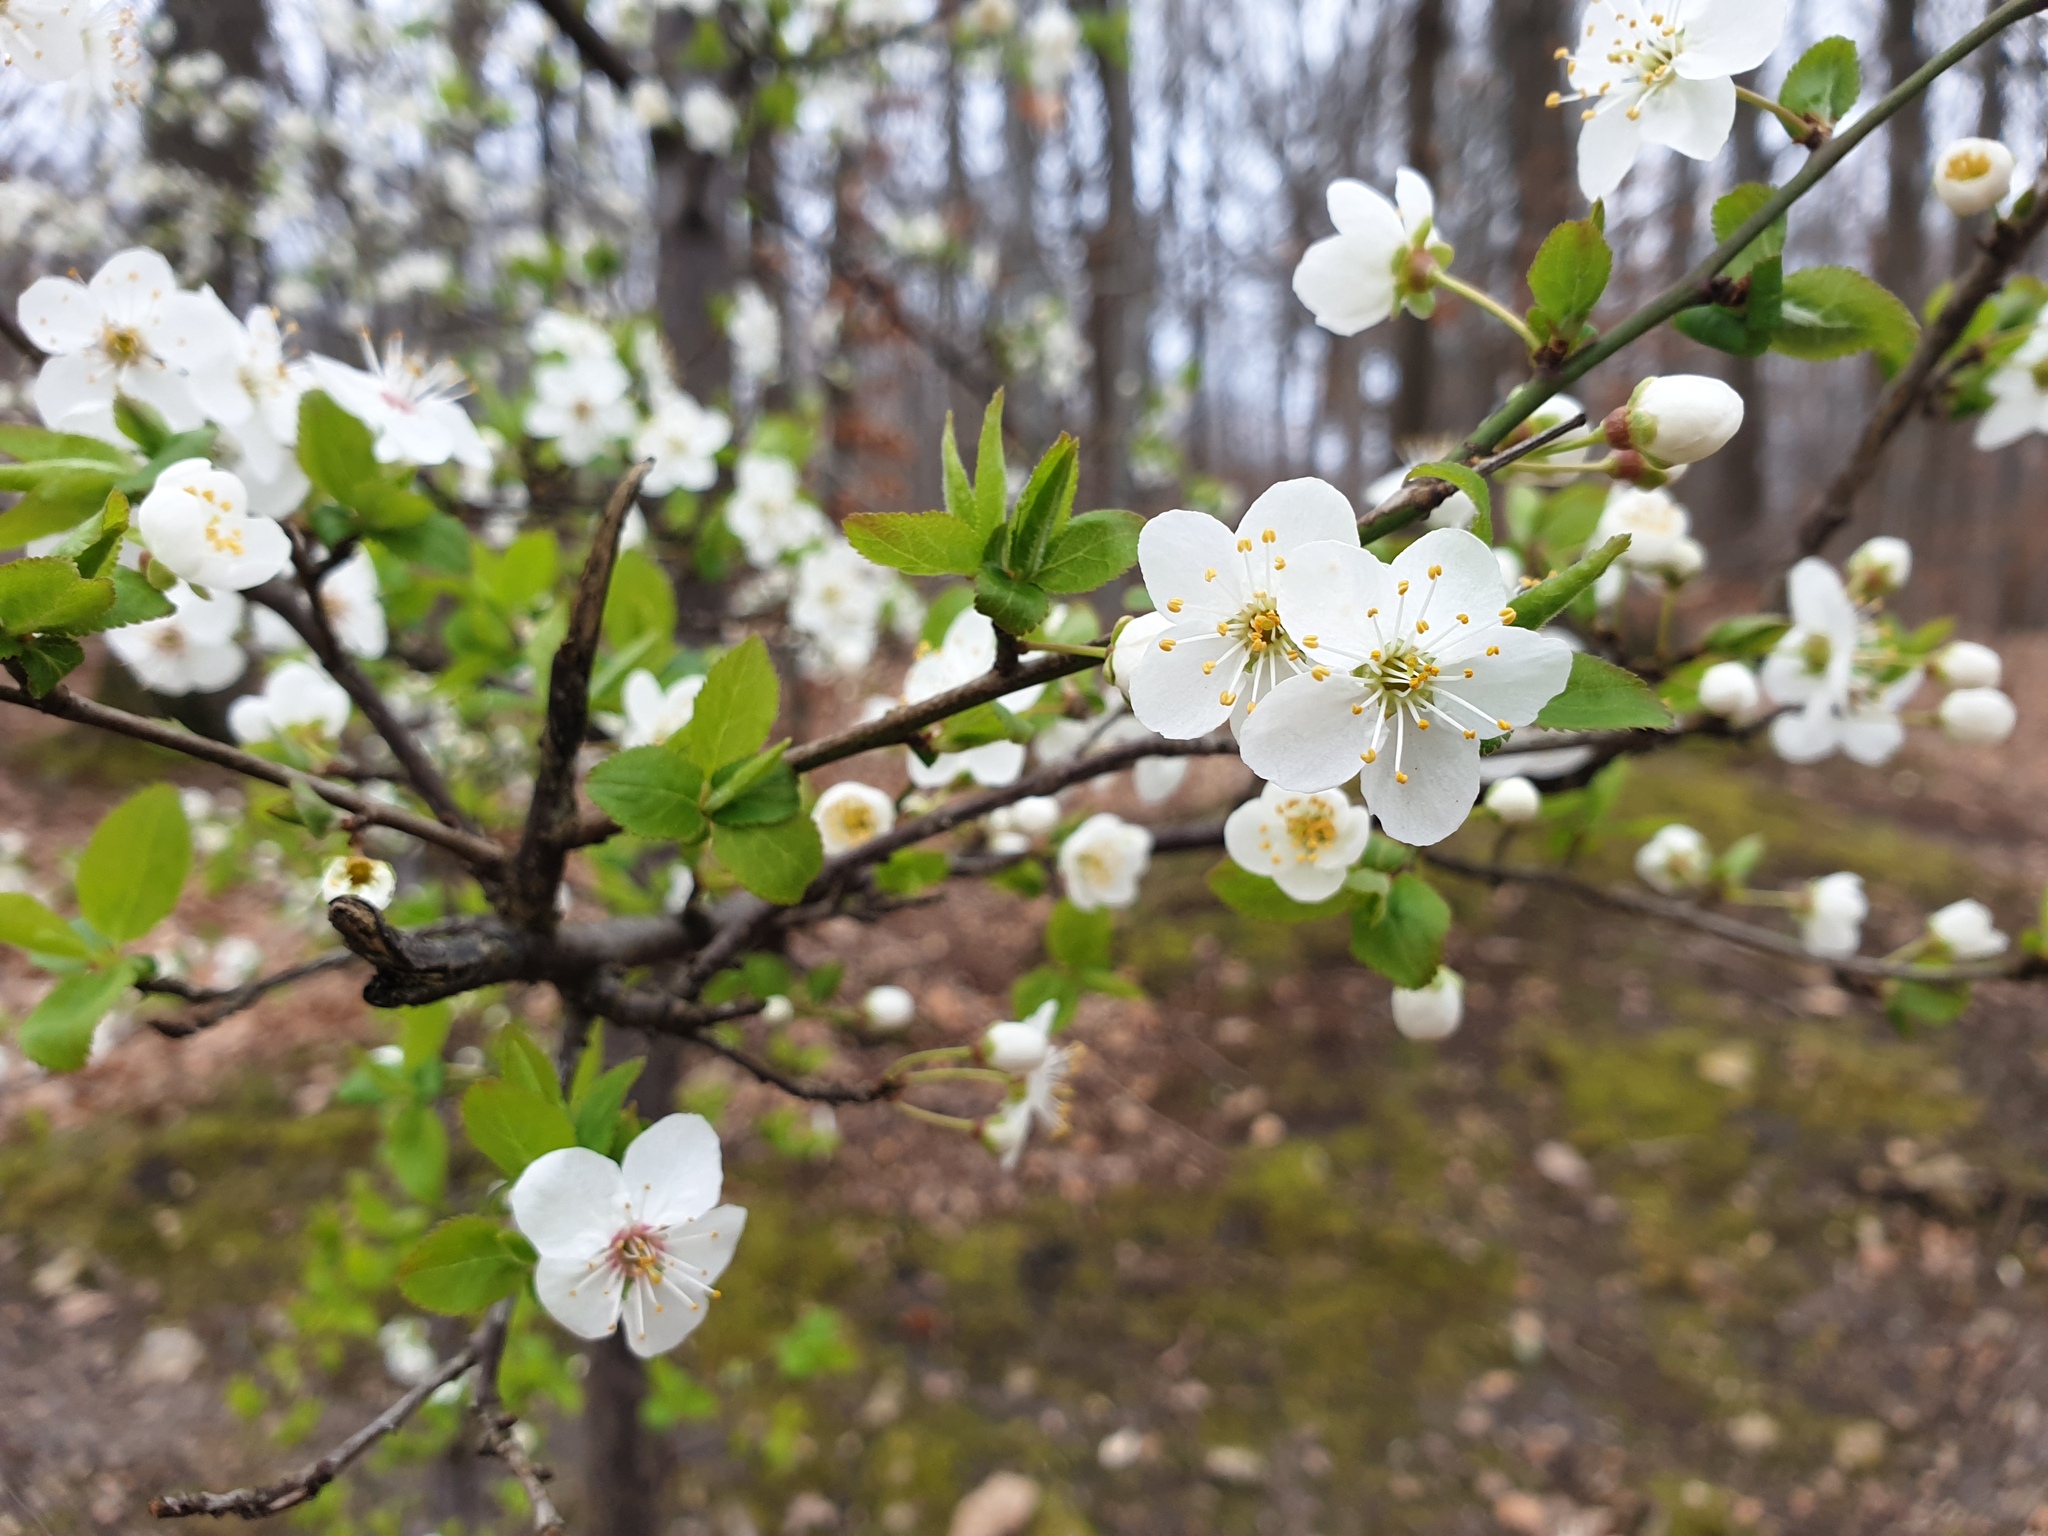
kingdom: Plantae
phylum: Tracheophyta
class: Magnoliopsida
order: Rosales
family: Rosaceae
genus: Prunus
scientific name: Prunus cerasifera
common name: Cherry plum
